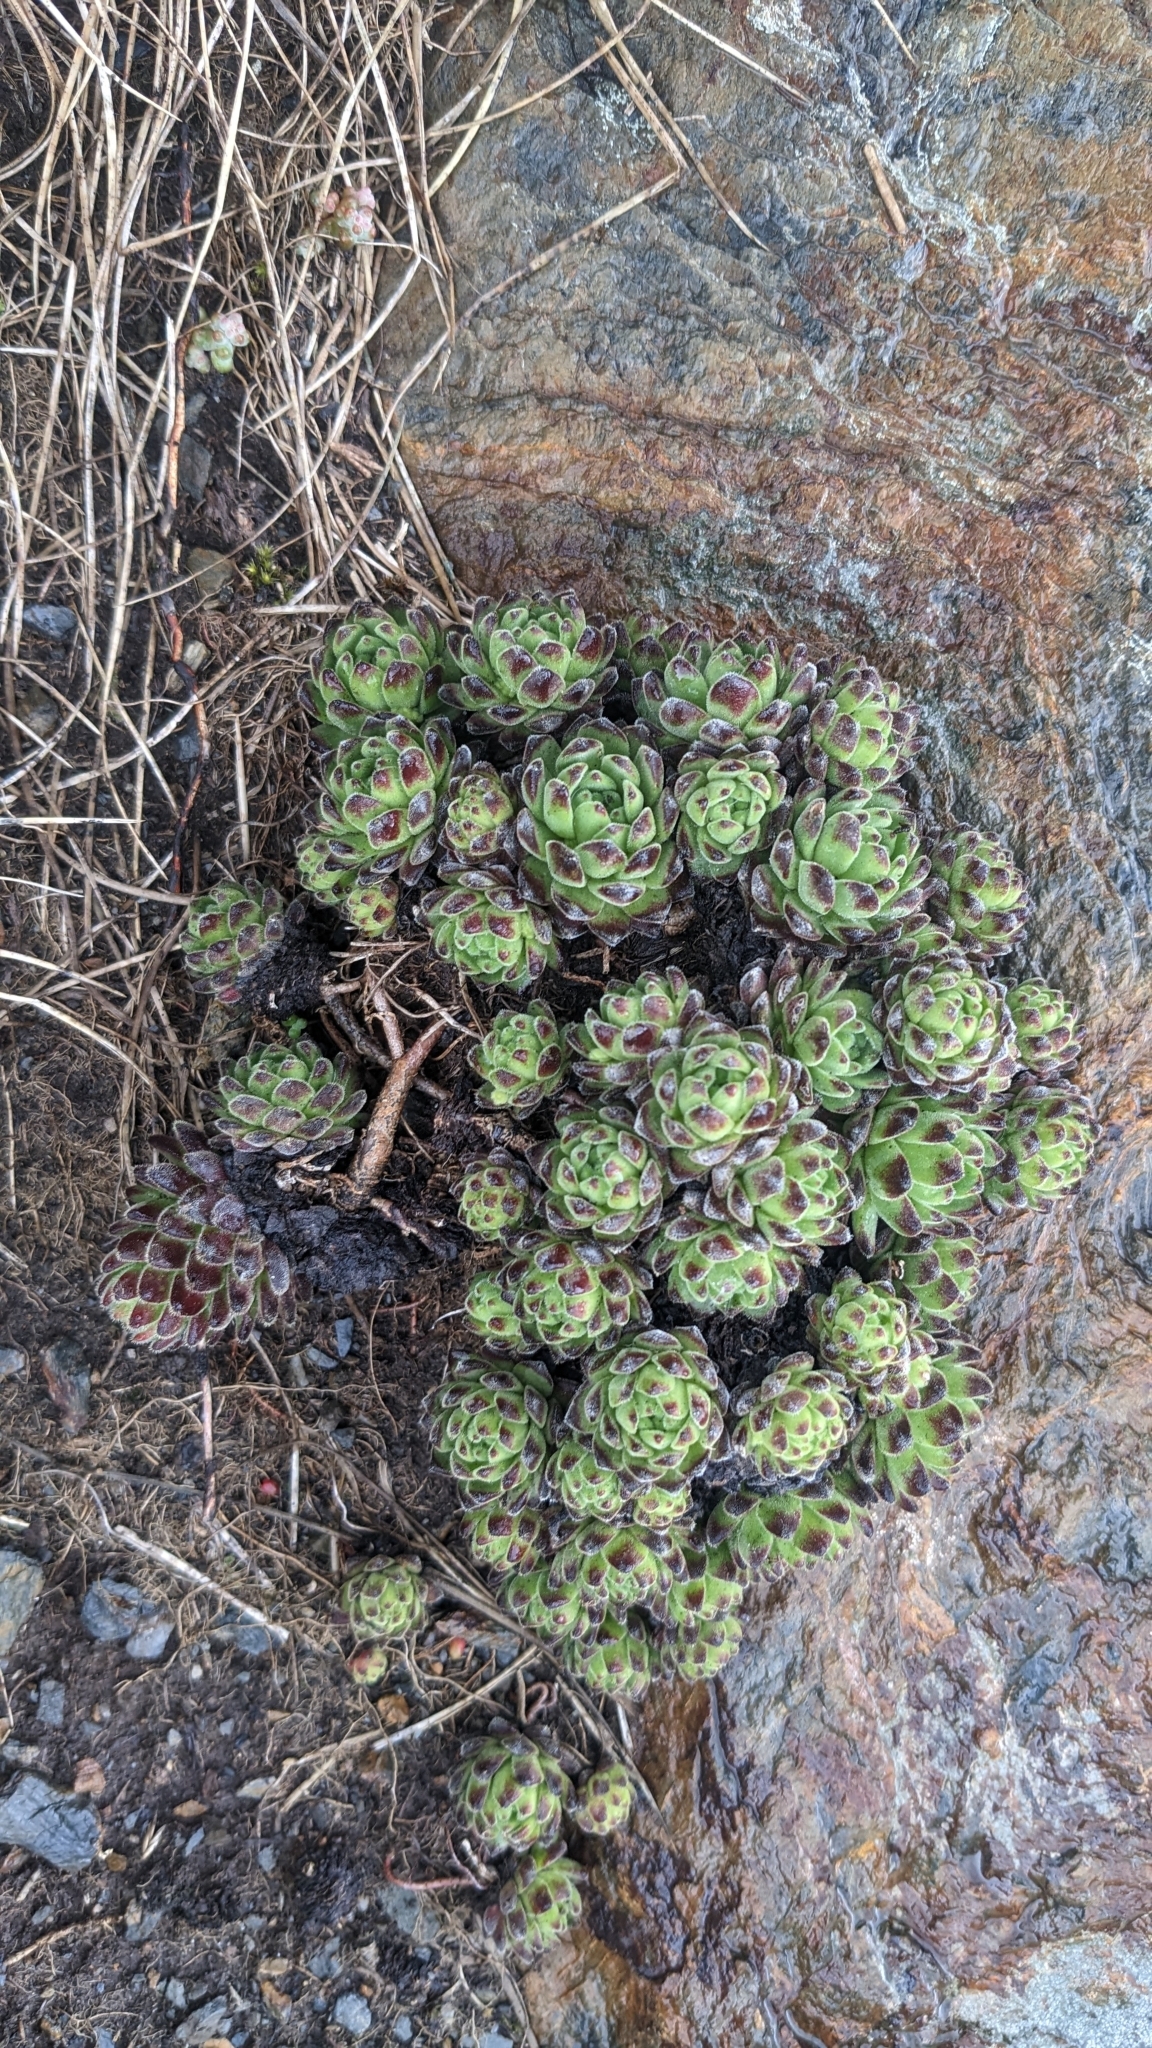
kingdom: Plantae
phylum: Tracheophyta
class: Magnoliopsida
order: Saxifragales
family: Crassulaceae
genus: Sempervivum
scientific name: Sempervivum montanum
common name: Mountain house-leek
